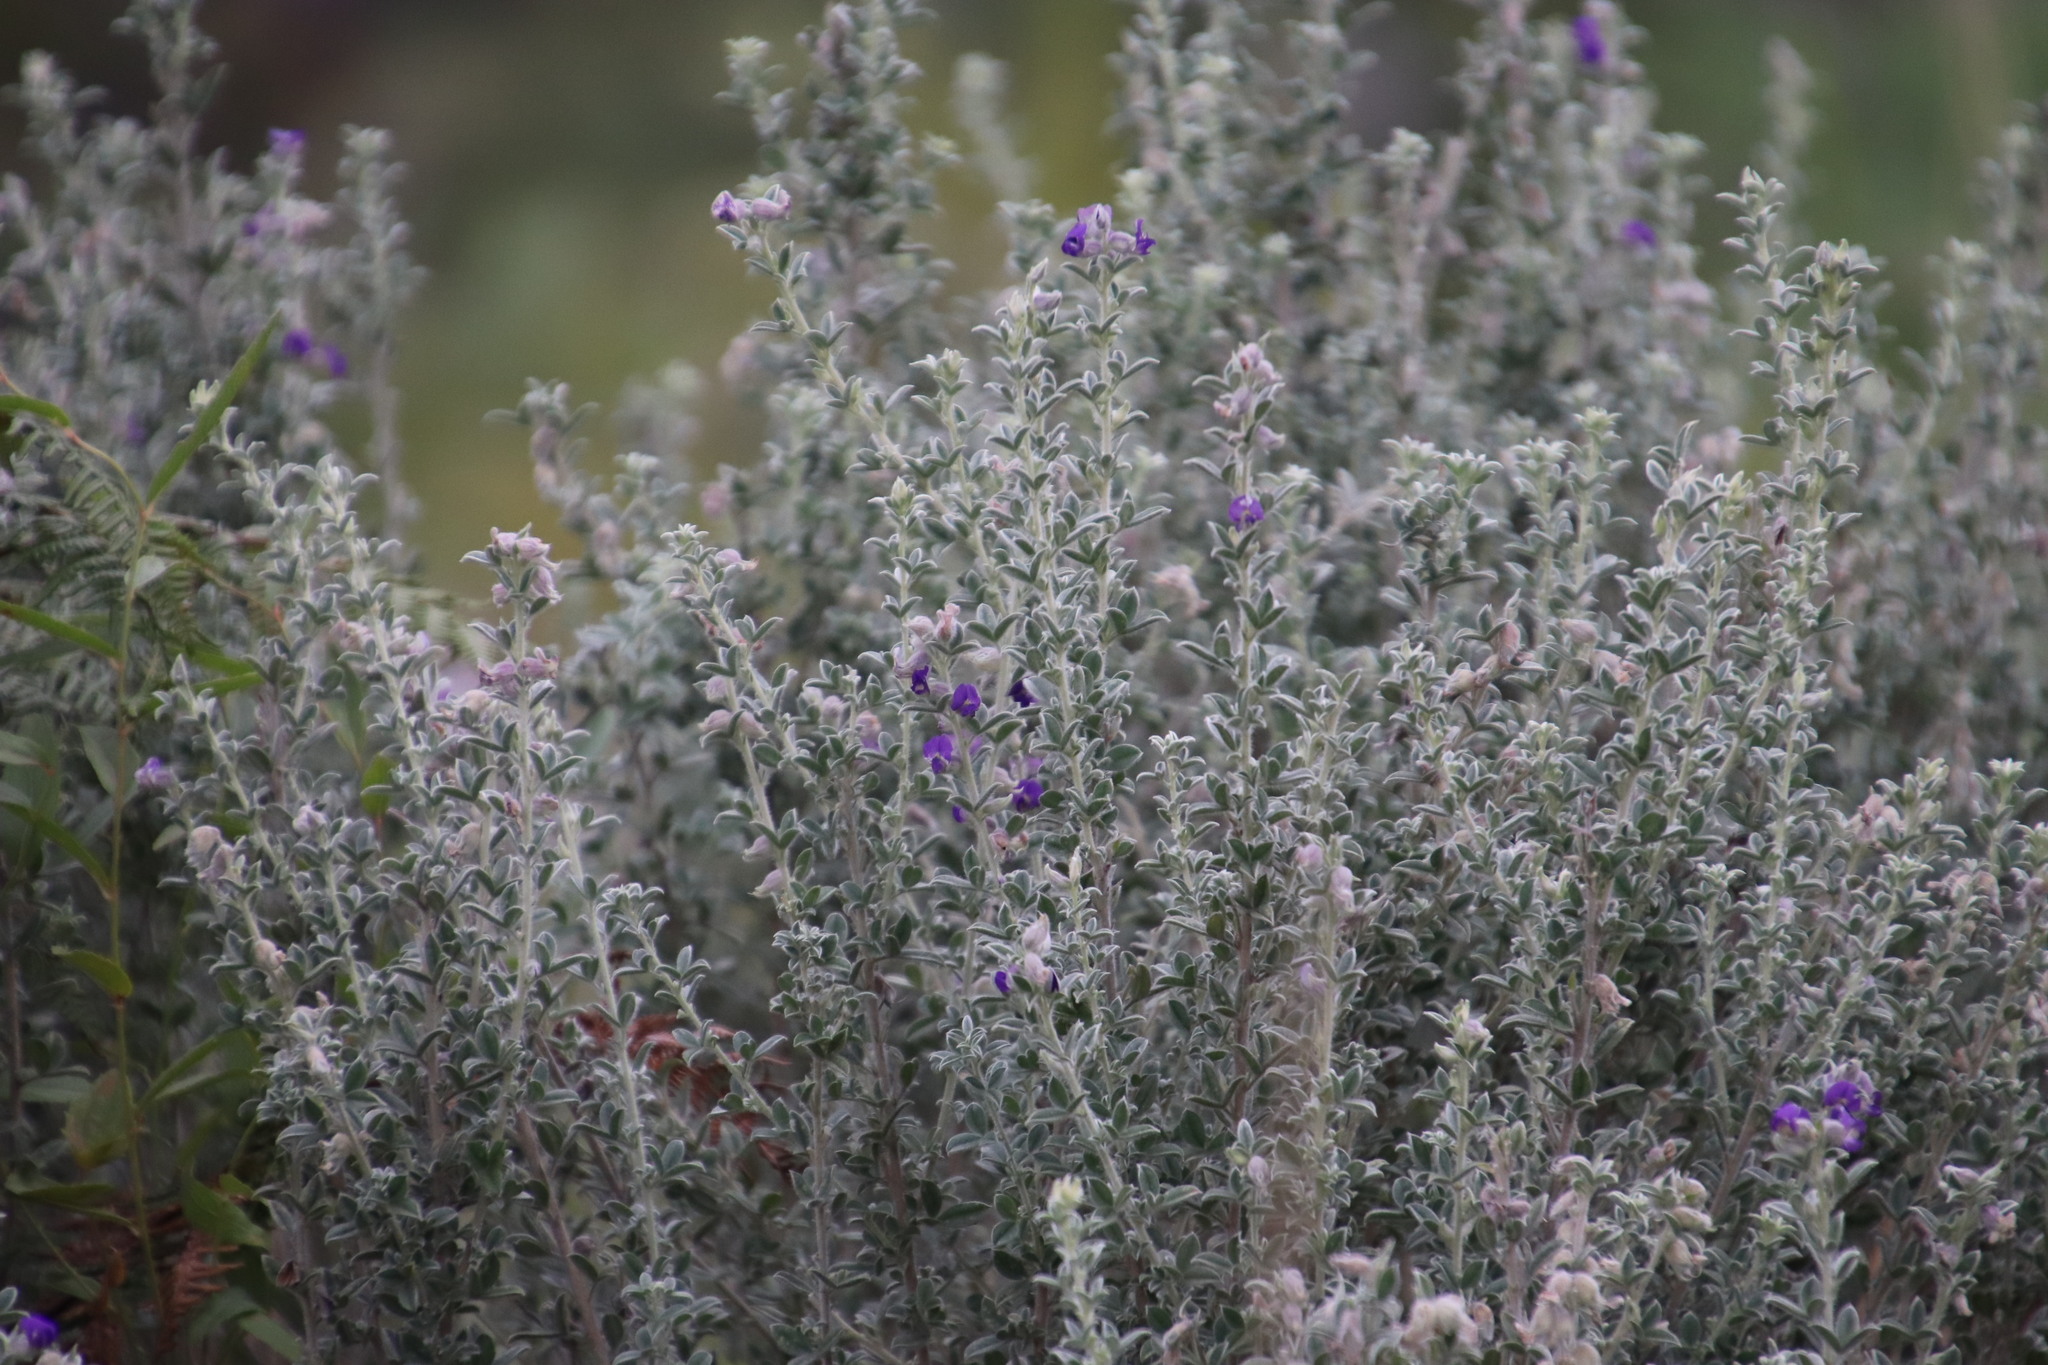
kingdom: Plantae
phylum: Tracheophyta
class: Magnoliopsida
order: Fabales
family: Fabaceae
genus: Lotononis
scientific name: Lotononis lotononoides
